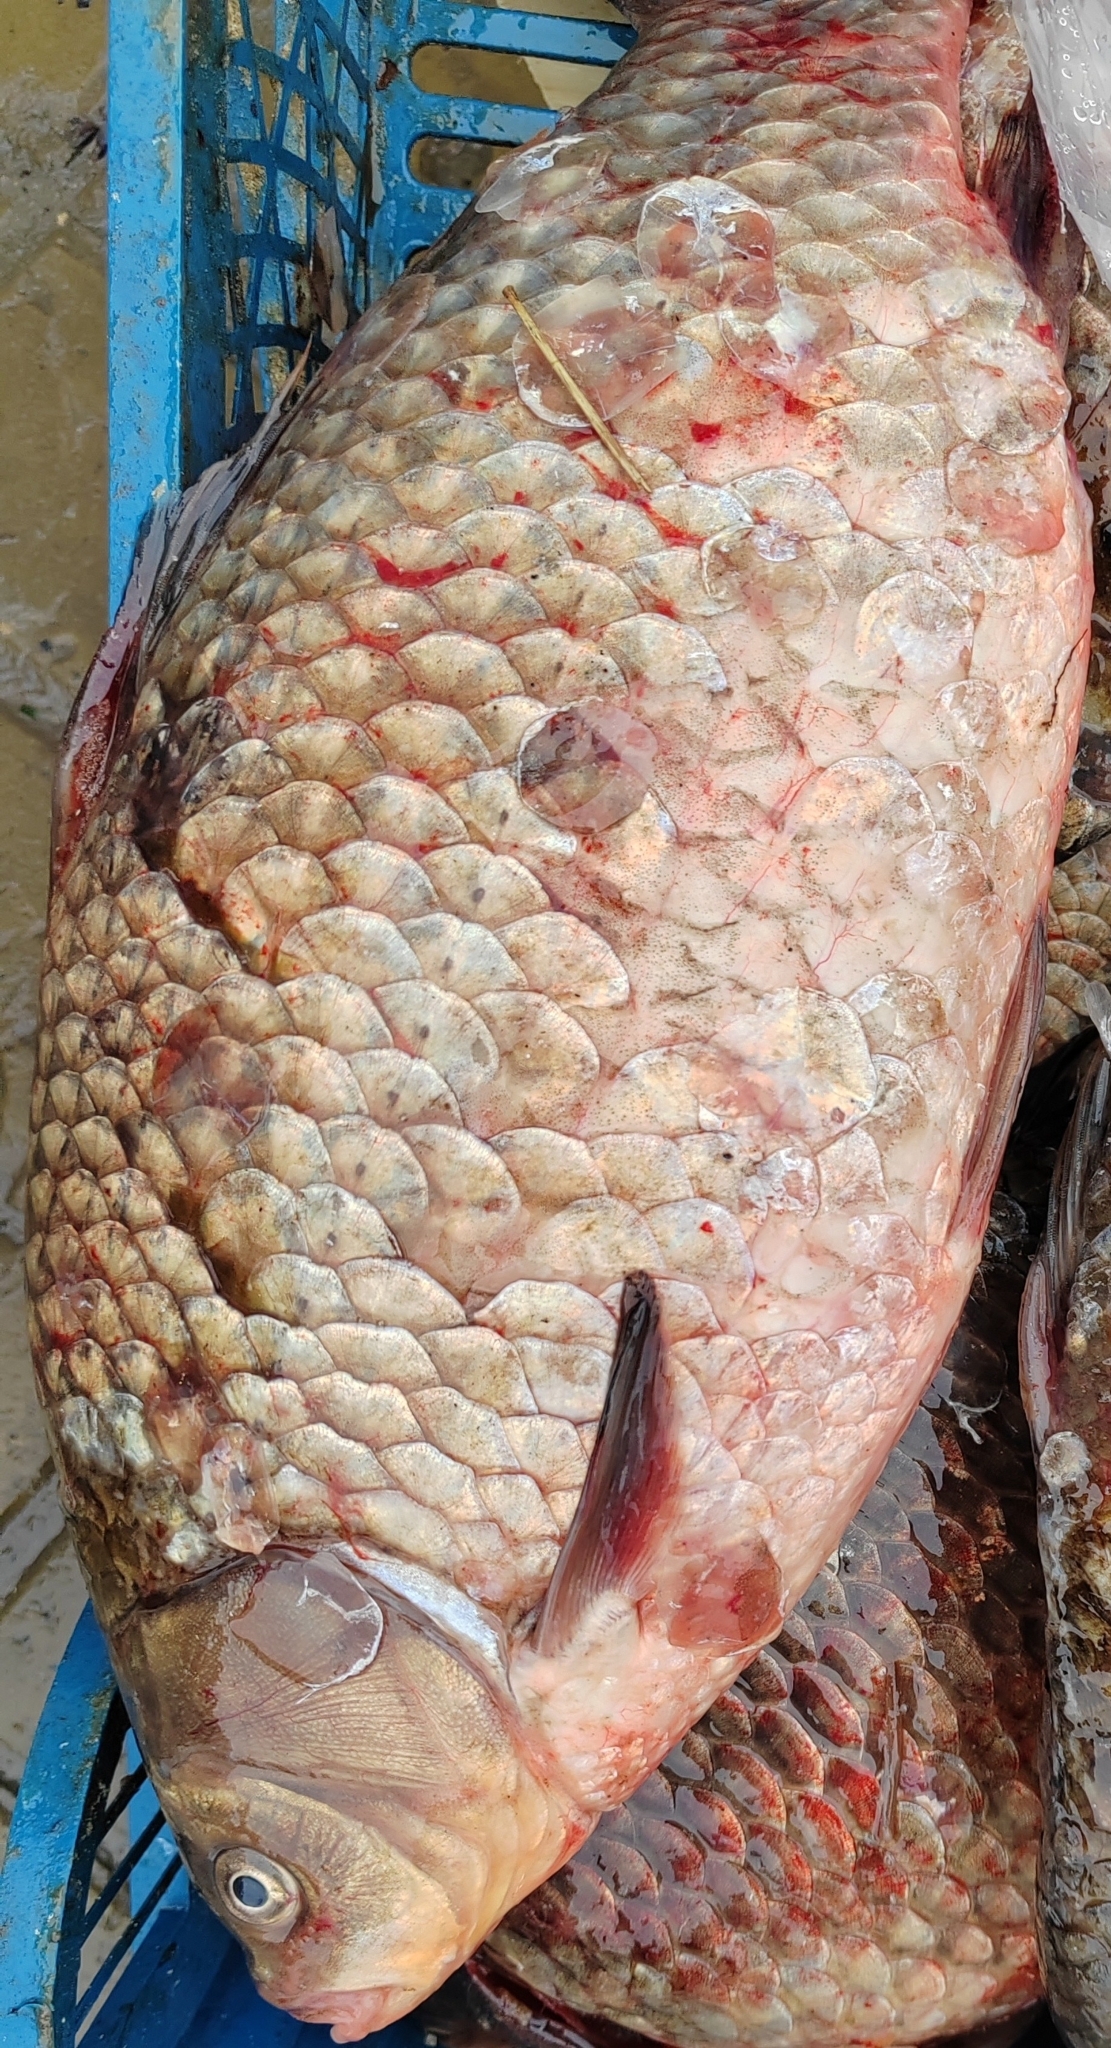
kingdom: Animalia
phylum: Chordata
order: Cypriniformes
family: Cyprinidae
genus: Carassius
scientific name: Carassius gibelio
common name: Prussian carp
